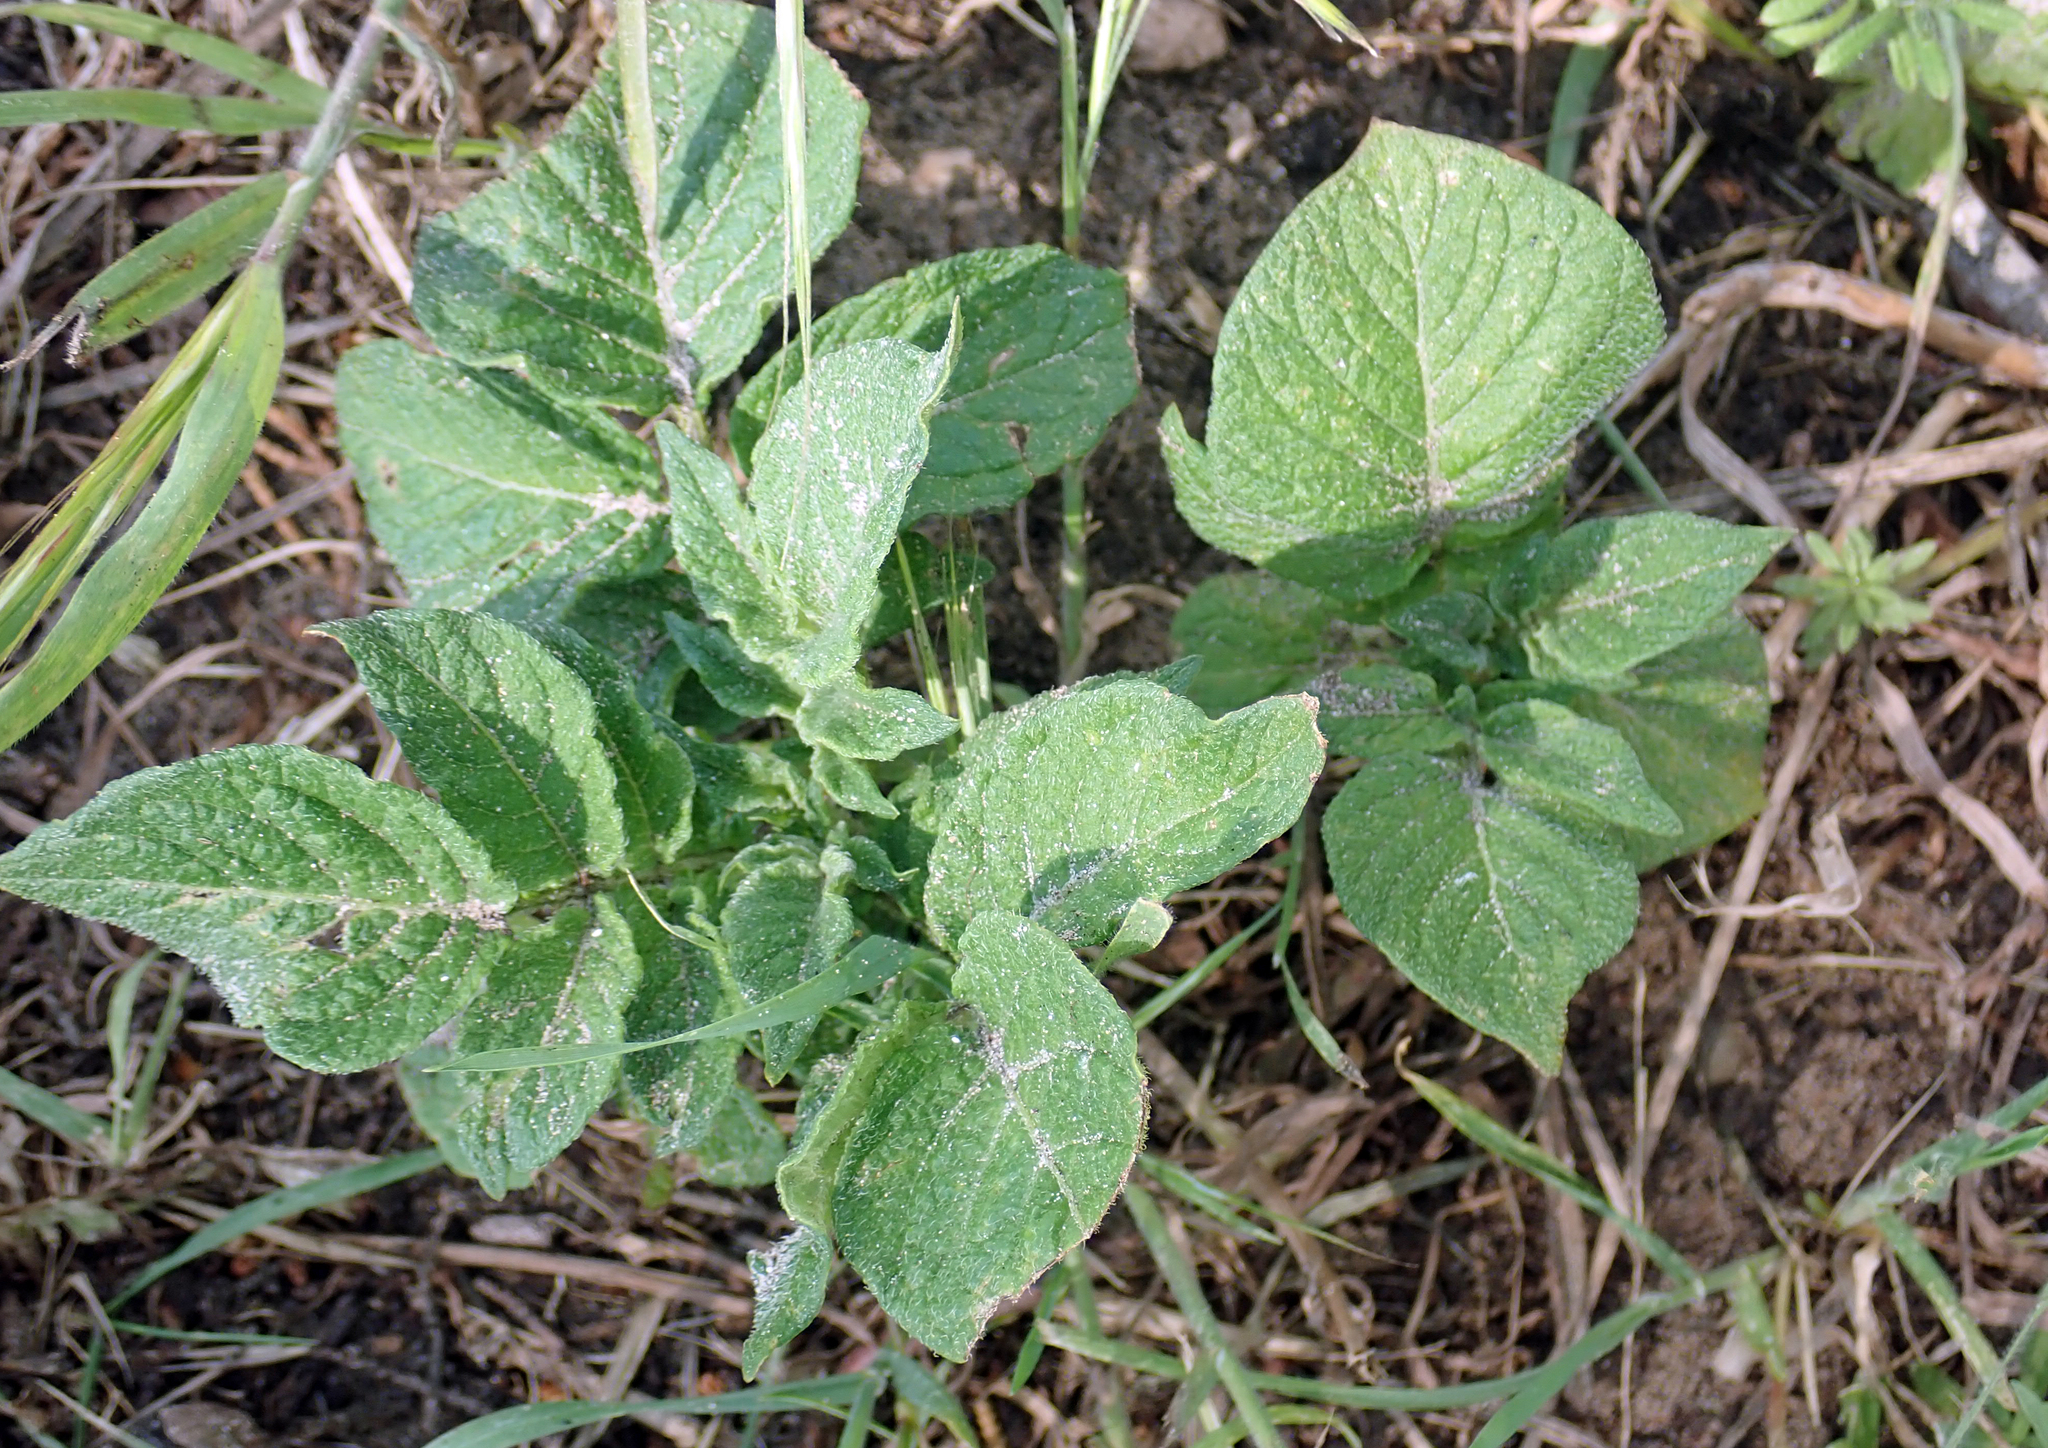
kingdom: Plantae
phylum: Tracheophyta
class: Magnoliopsida
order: Solanales
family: Solanaceae
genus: Solanum
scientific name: Solanum tuberosum
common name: Potato
